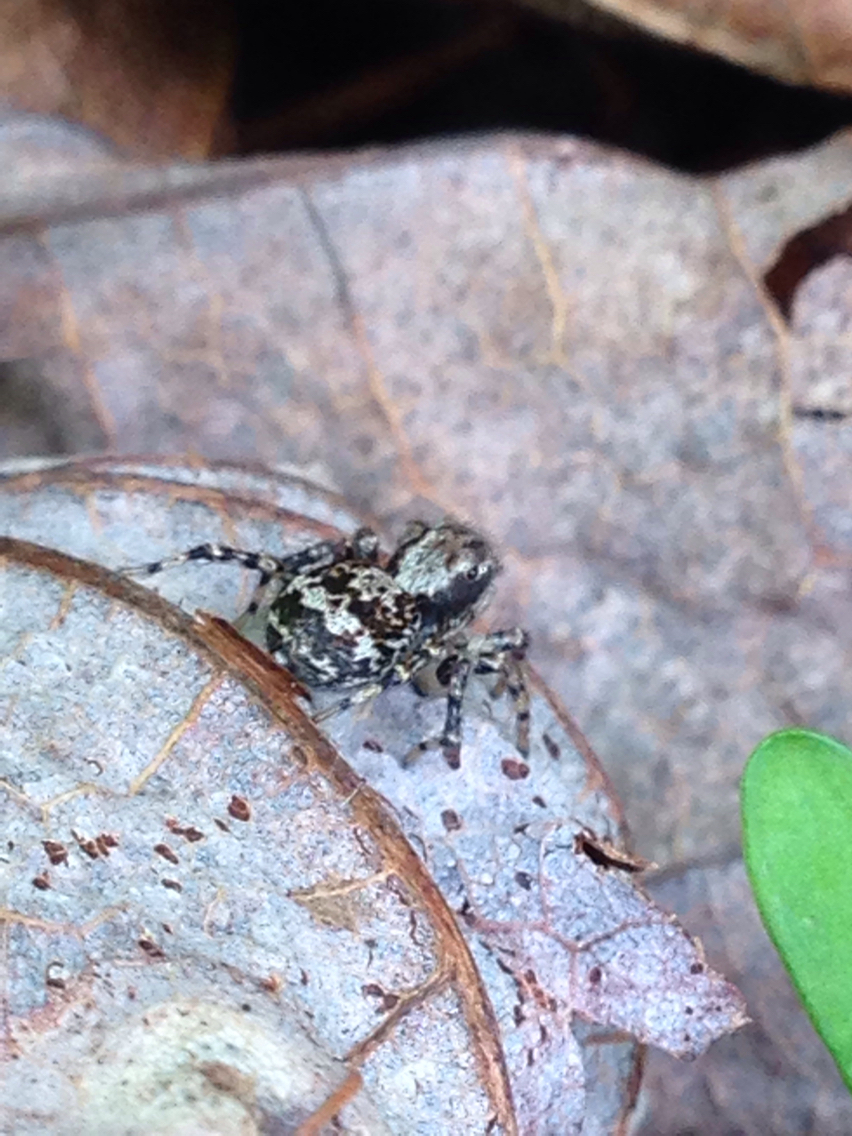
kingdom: Animalia
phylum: Arthropoda
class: Arachnida
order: Araneae
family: Salticidae
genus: Naphrys
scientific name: Naphrys pulex
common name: Flea jumping spider
